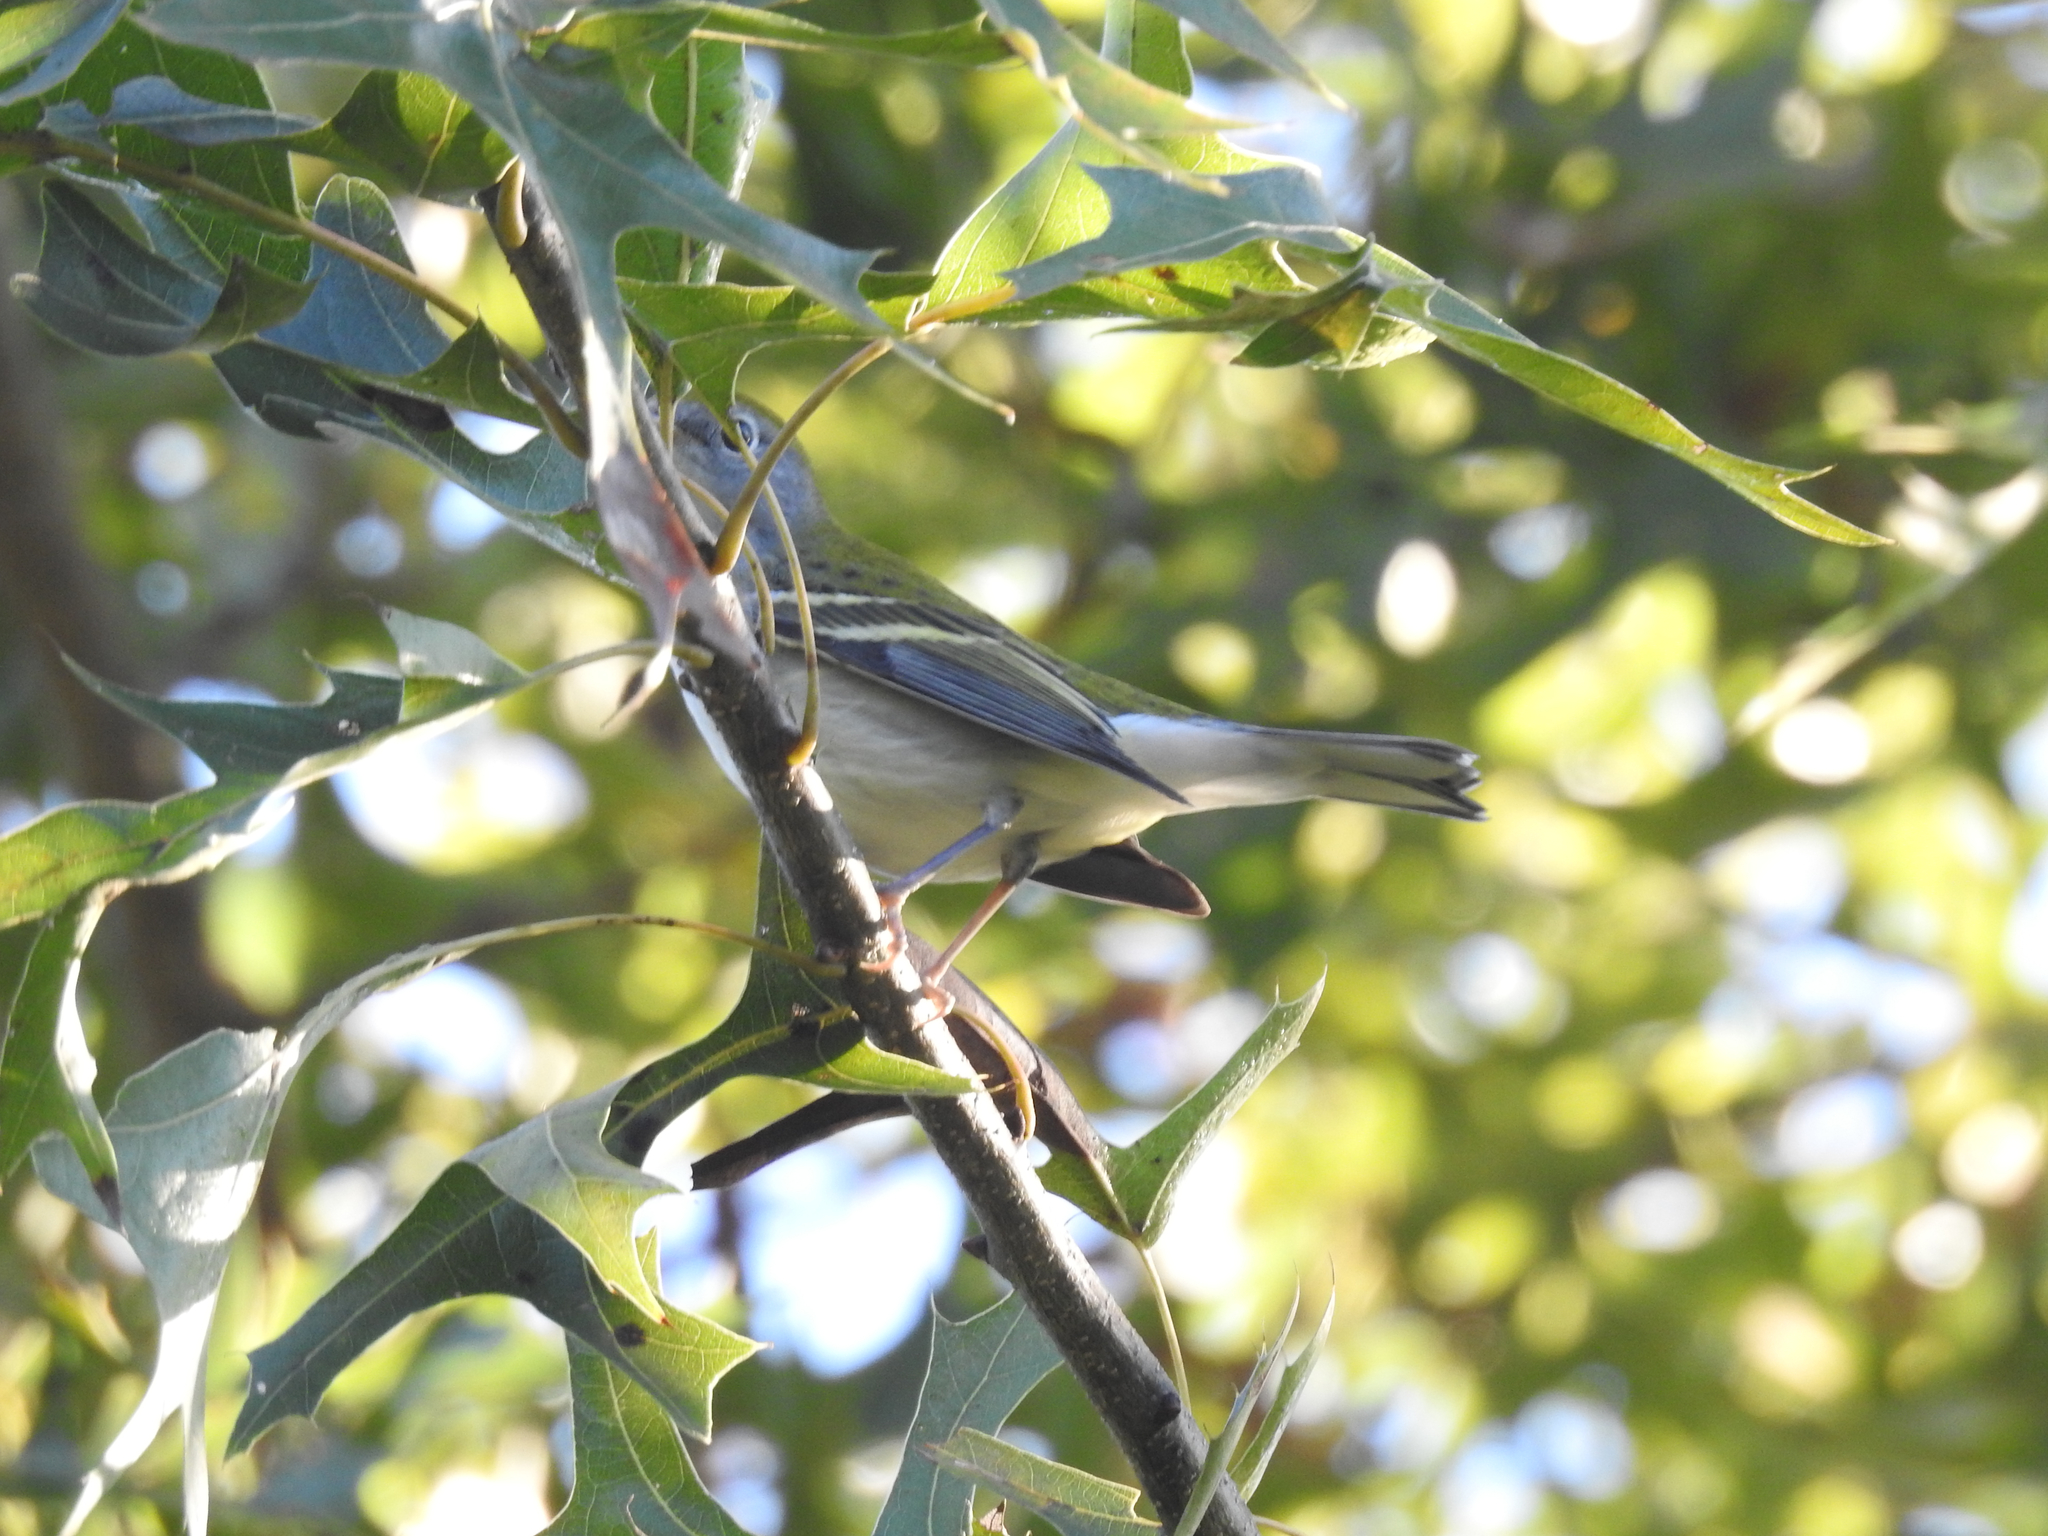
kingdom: Animalia
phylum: Chordata
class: Aves
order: Passeriformes
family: Parulidae
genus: Setophaga
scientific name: Setophaga pensylvanica
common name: Chestnut-sided warbler
